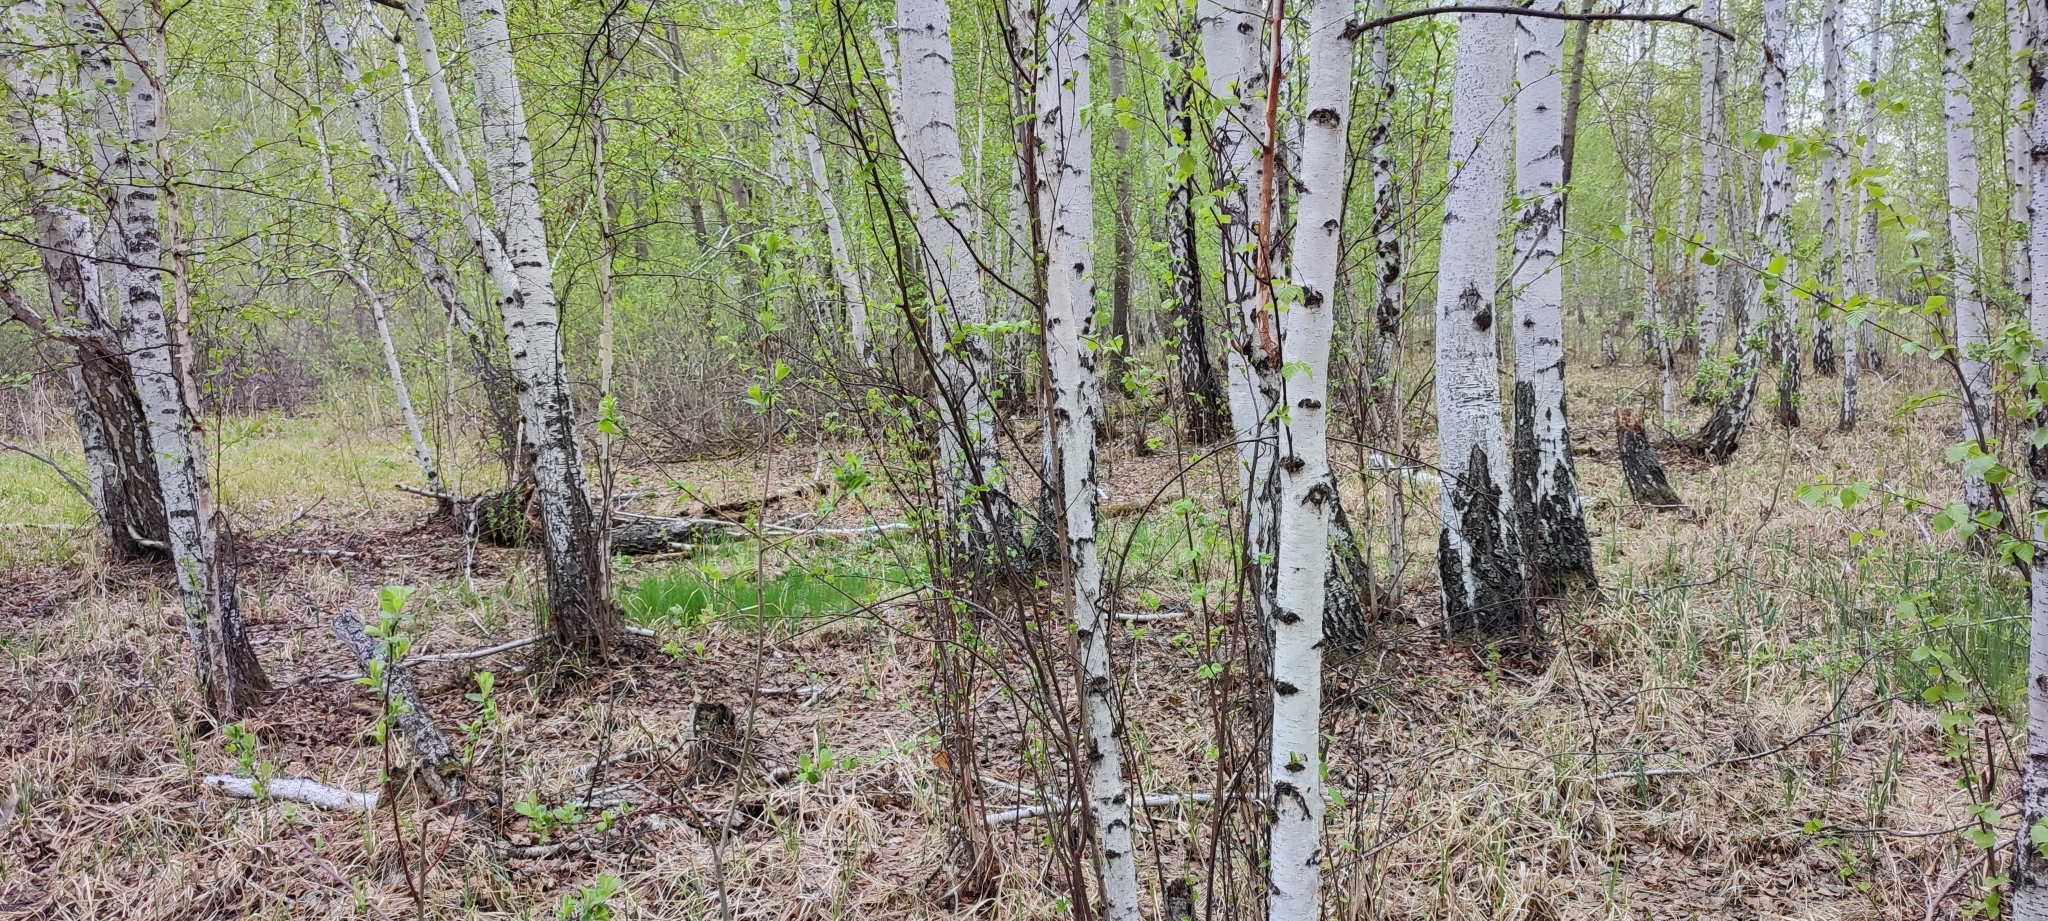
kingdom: Plantae
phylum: Tracheophyta
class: Magnoliopsida
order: Fagales
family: Betulaceae
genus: Betula
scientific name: Betula pendula
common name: Silver birch
